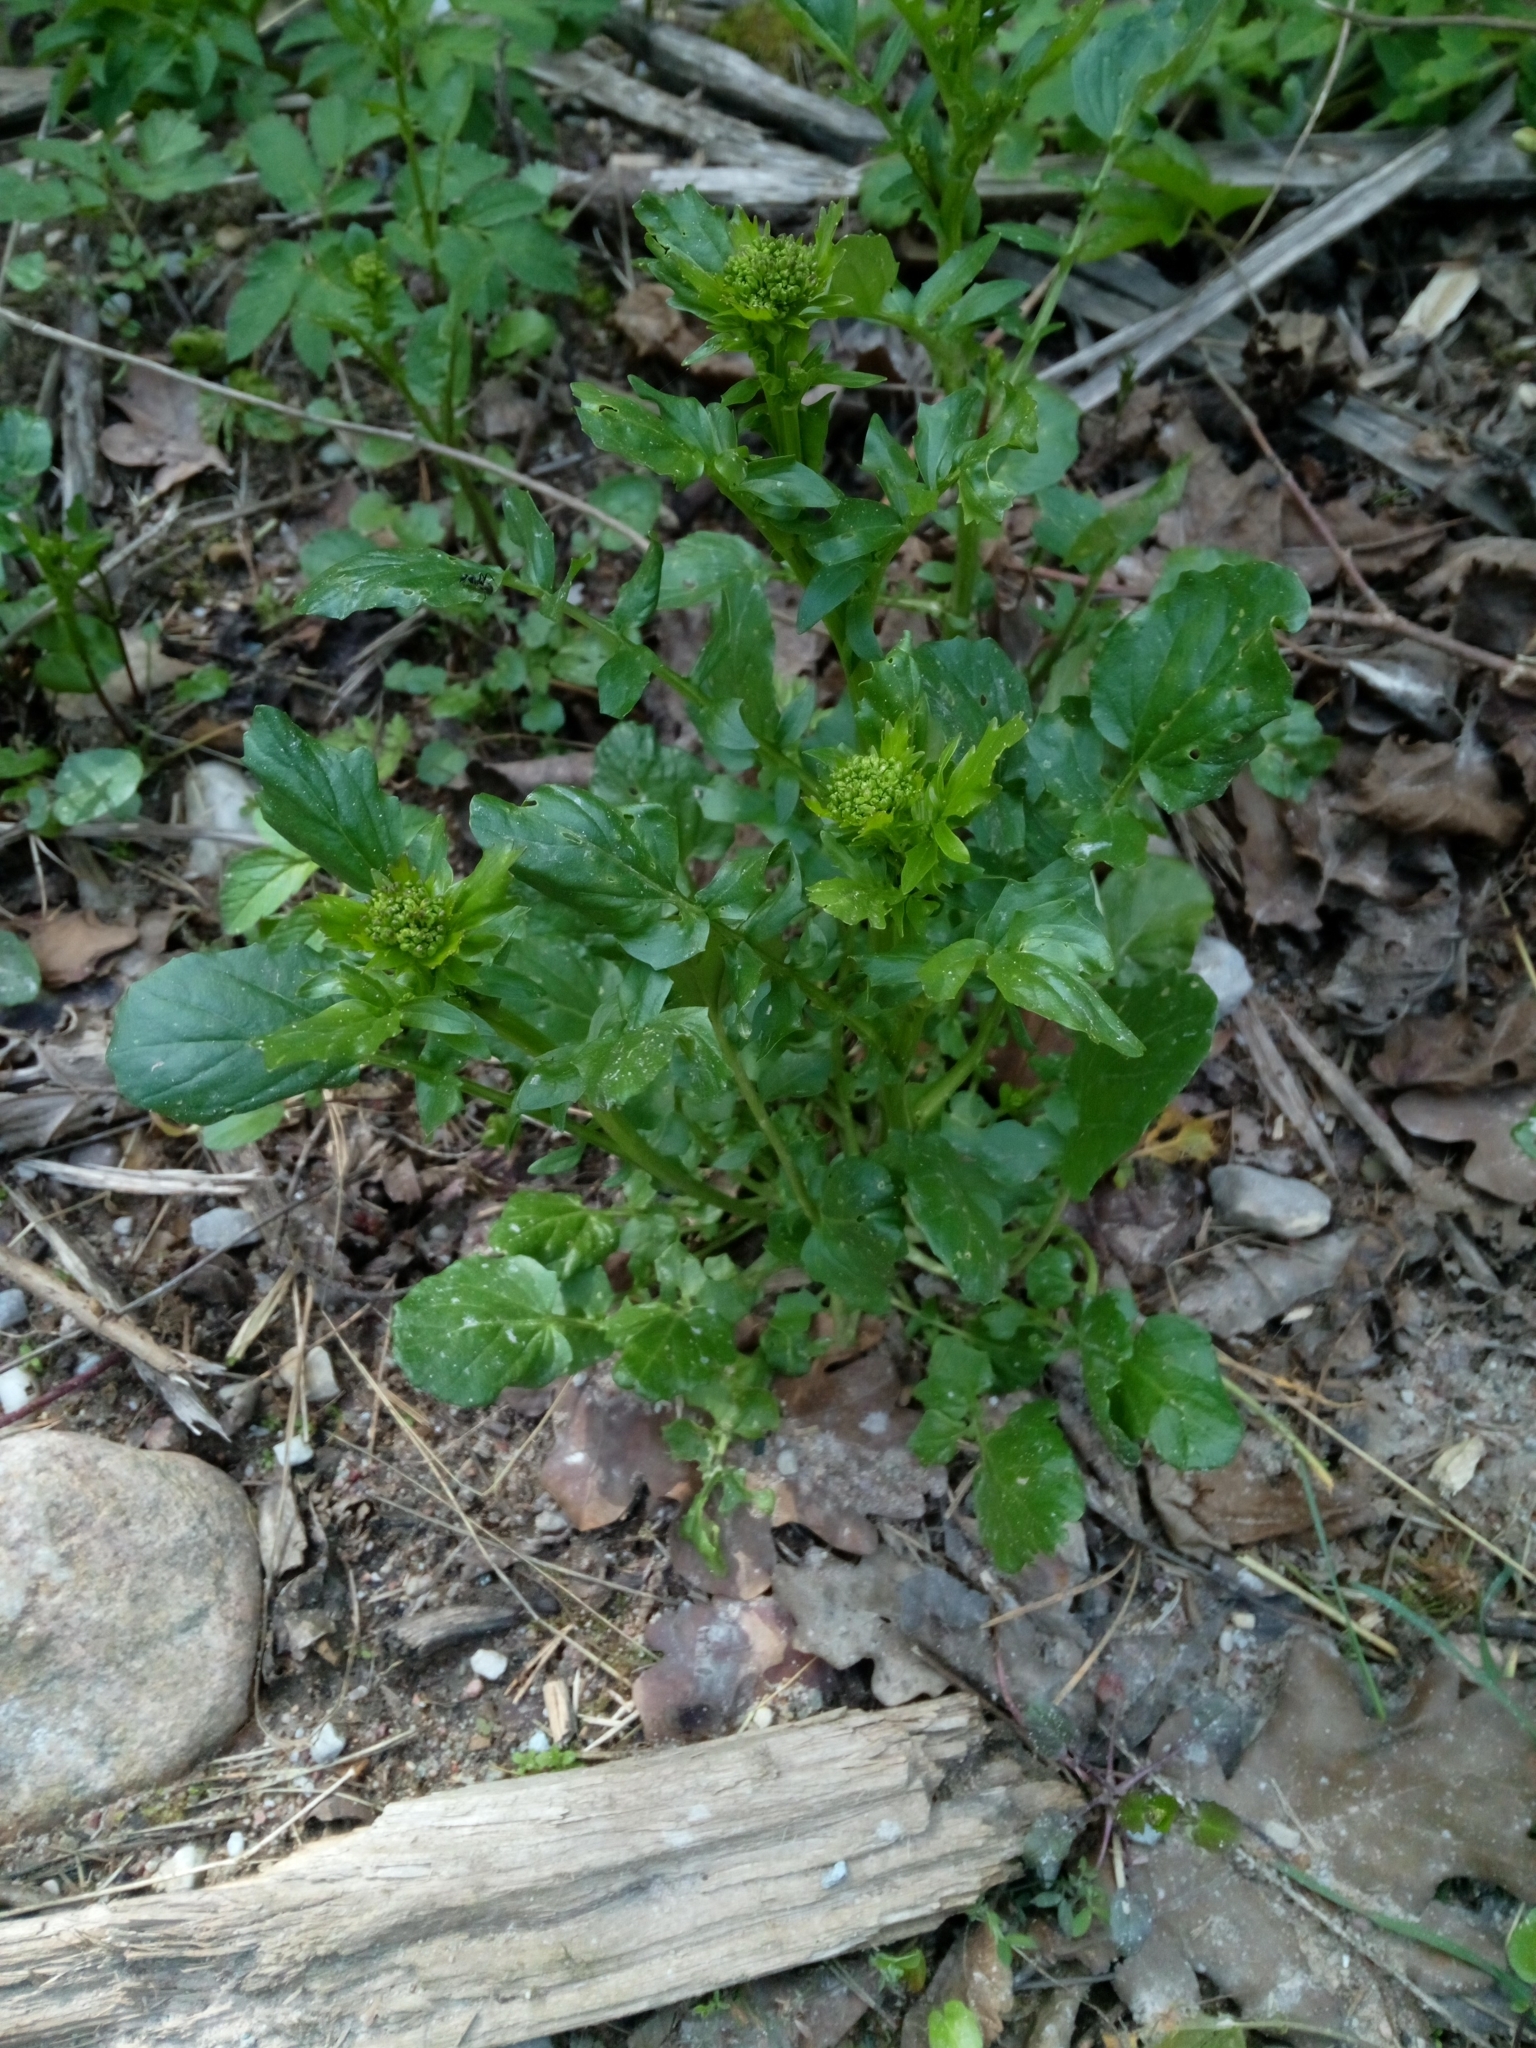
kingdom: Plantae
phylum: Tracheophyta
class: Magnoliopsida
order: Brassicales
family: Brassicaceae
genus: Barbarea
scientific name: Barbarea vulgaris
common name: Cressy-greens
